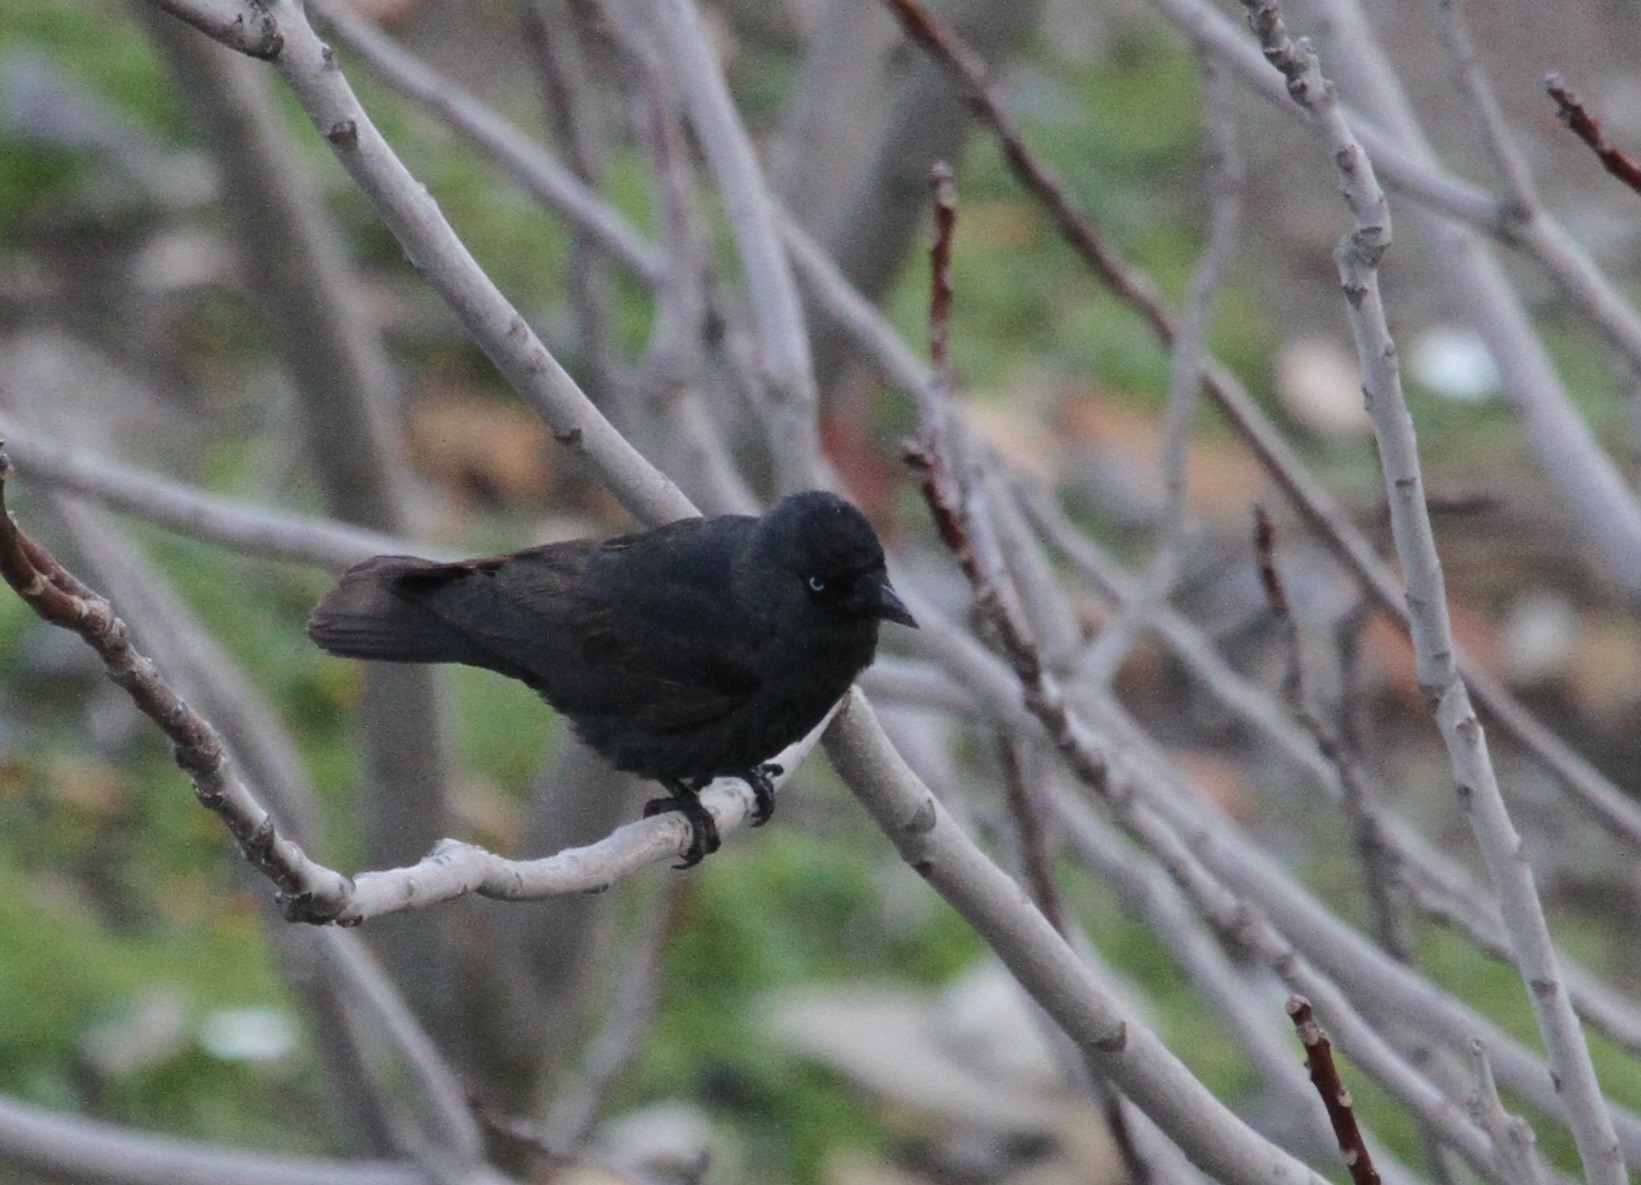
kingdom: Animalia
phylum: Chordata
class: Aves
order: Passeriformes
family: Corvidae
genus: Coloeus
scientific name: Coloeus monedula
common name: Western jackdaw
